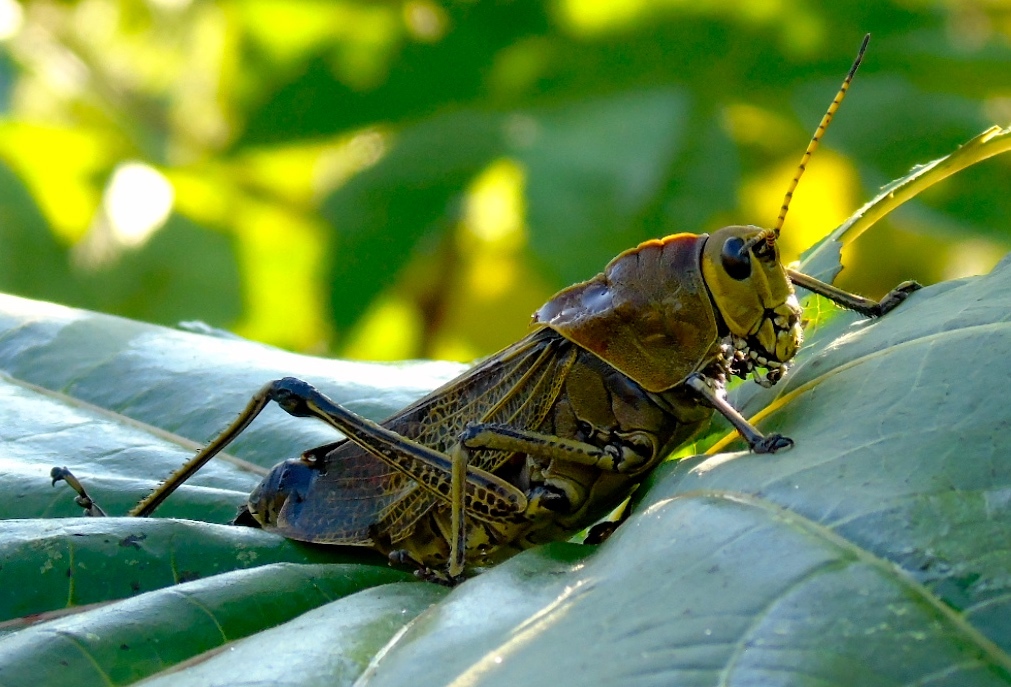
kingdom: Animalia
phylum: Arthropoda
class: Insecta
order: Orthoptera
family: Romaleidae
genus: Romalea
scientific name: Romalea
